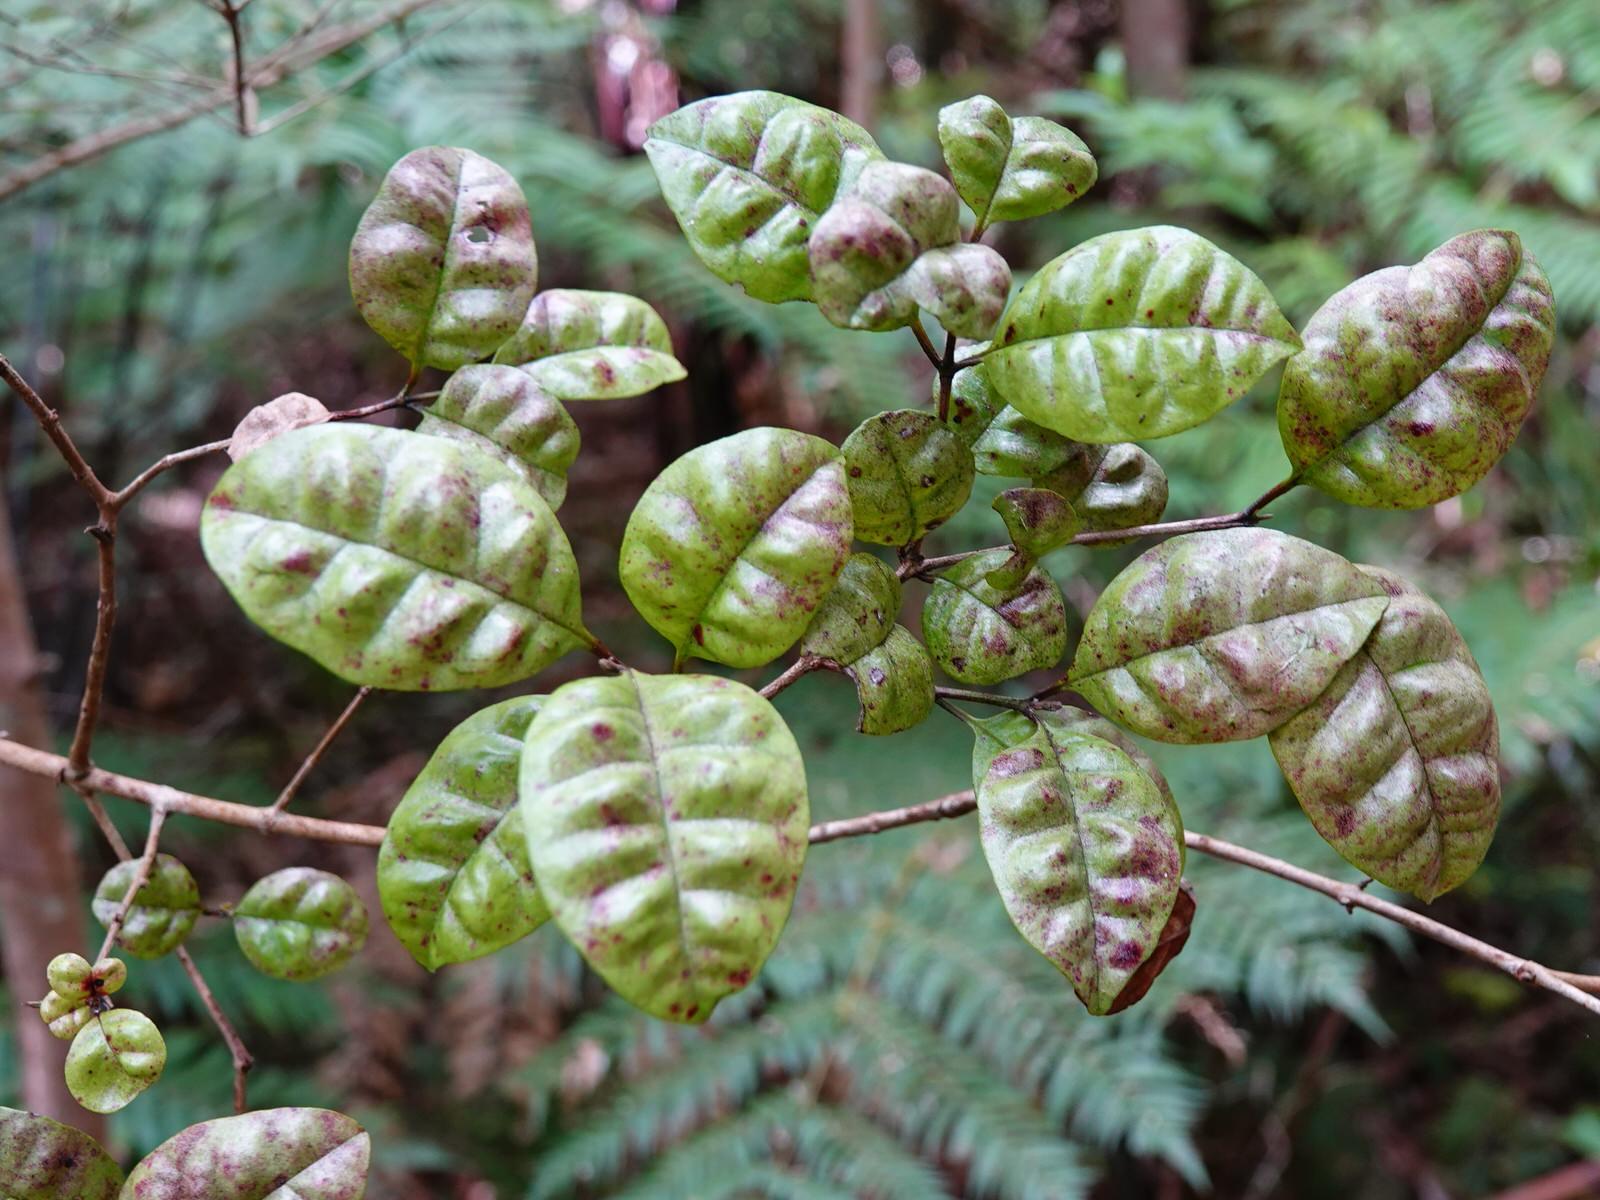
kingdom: Plantae
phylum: Tracheophyta
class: Magnoliopsida
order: Myrtales
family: Myrtaceae
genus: Lophomyrtus
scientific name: Lophomyrtus bullata
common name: Rama rama
